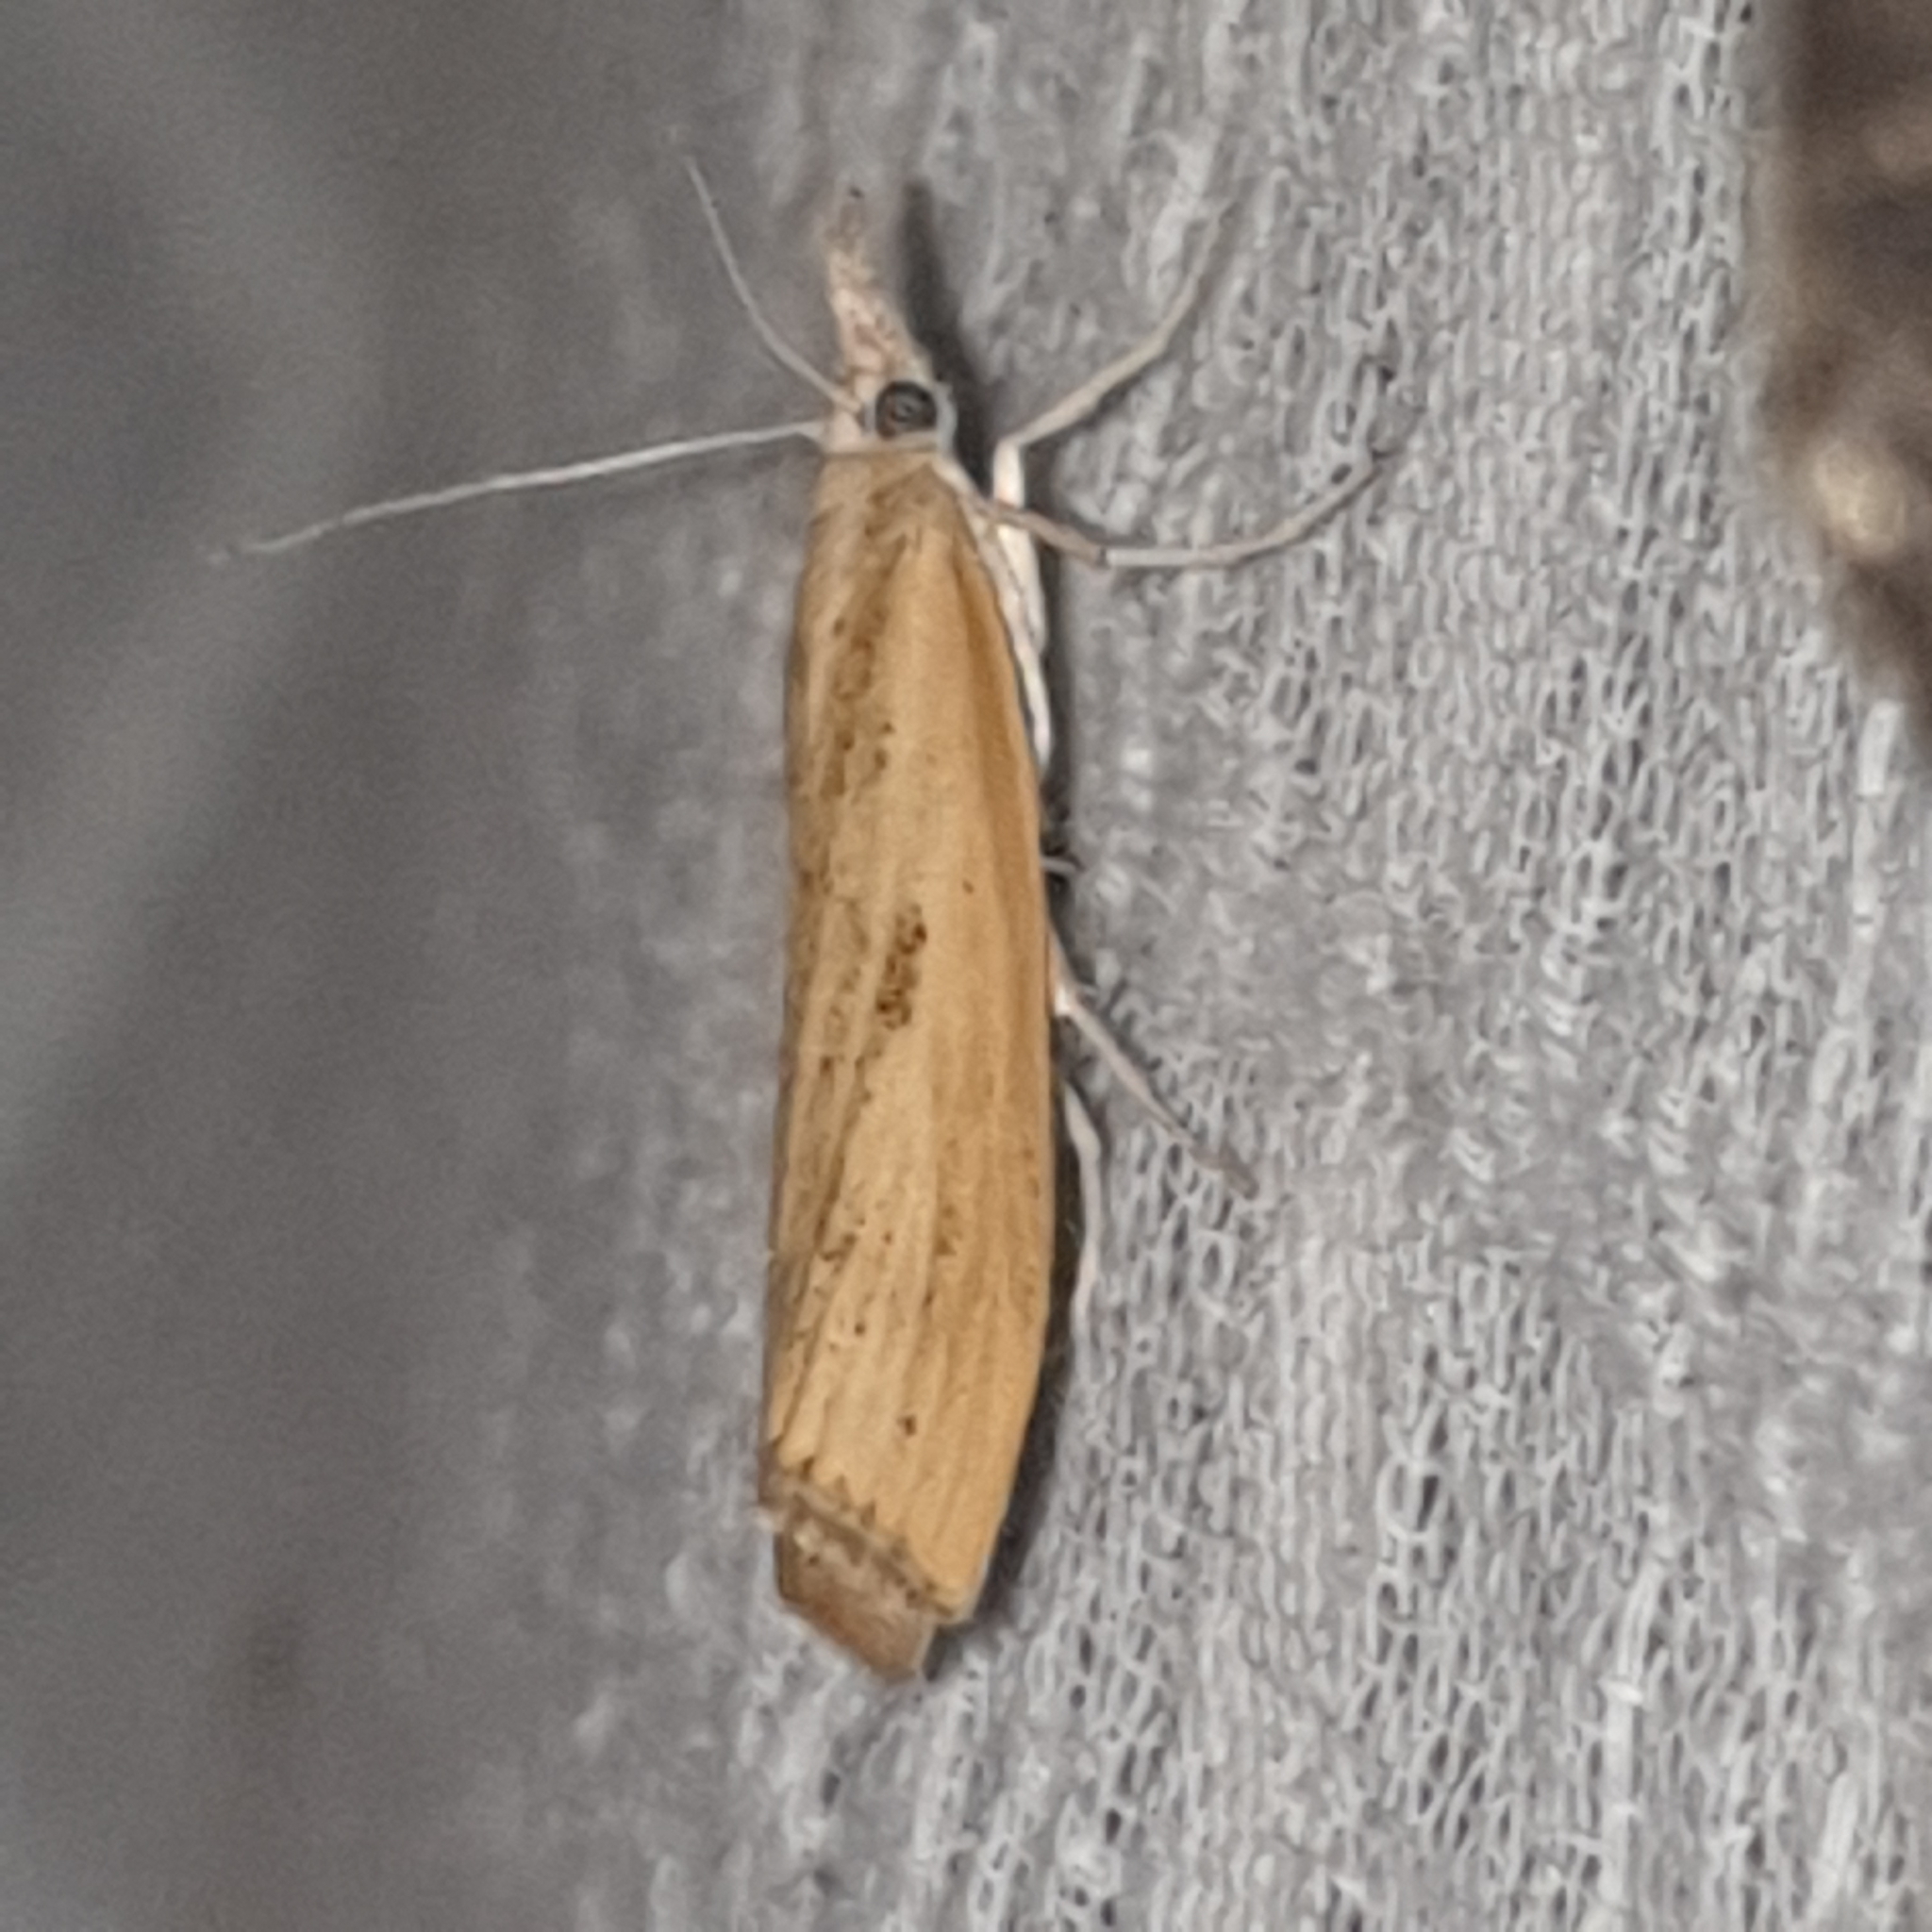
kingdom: Animalia
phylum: Arthropoda
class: Insecta
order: Lepidoptera
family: Crambidae
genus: Agriphila
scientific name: Agriphila inquinatella
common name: Barred grass-veneer
